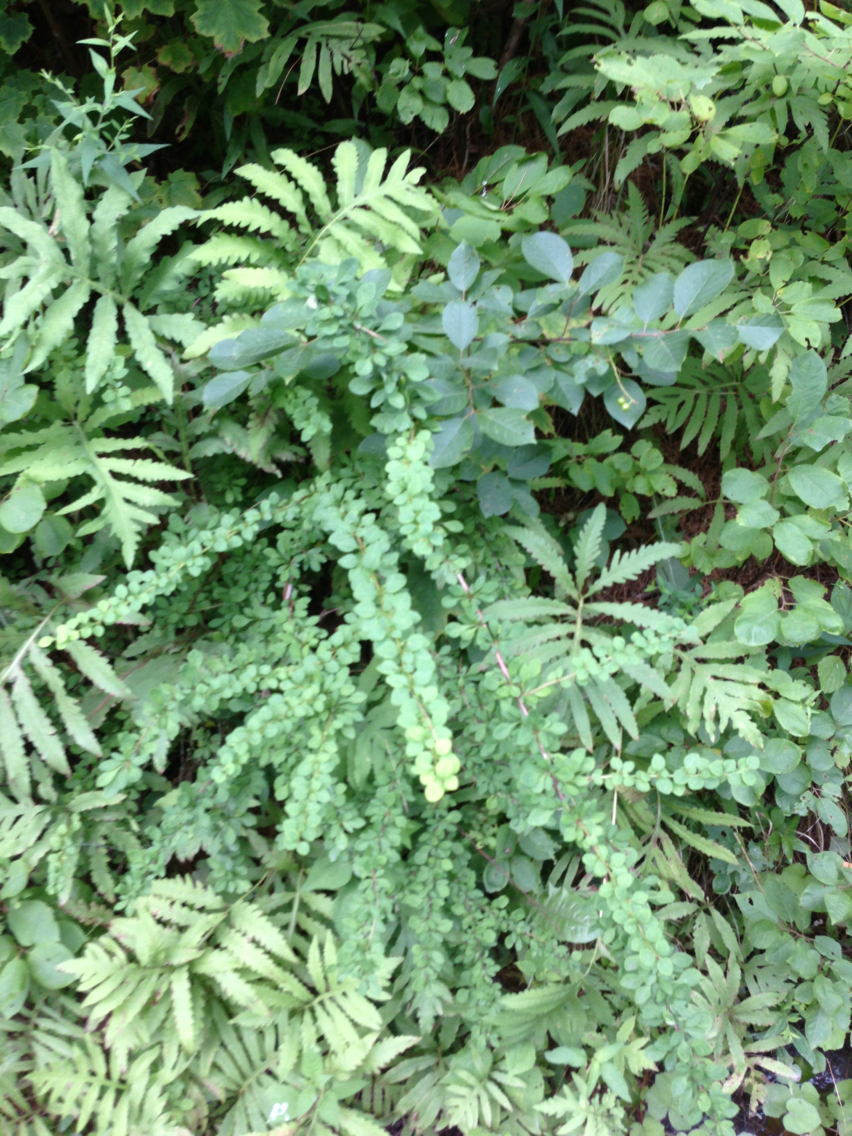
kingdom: Plantae
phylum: Tracheophyta
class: Magnoliopsida
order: Ranunculales
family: Berberidaceae
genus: Berberis
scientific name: Berberis thunbergii
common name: Japanese barberry
